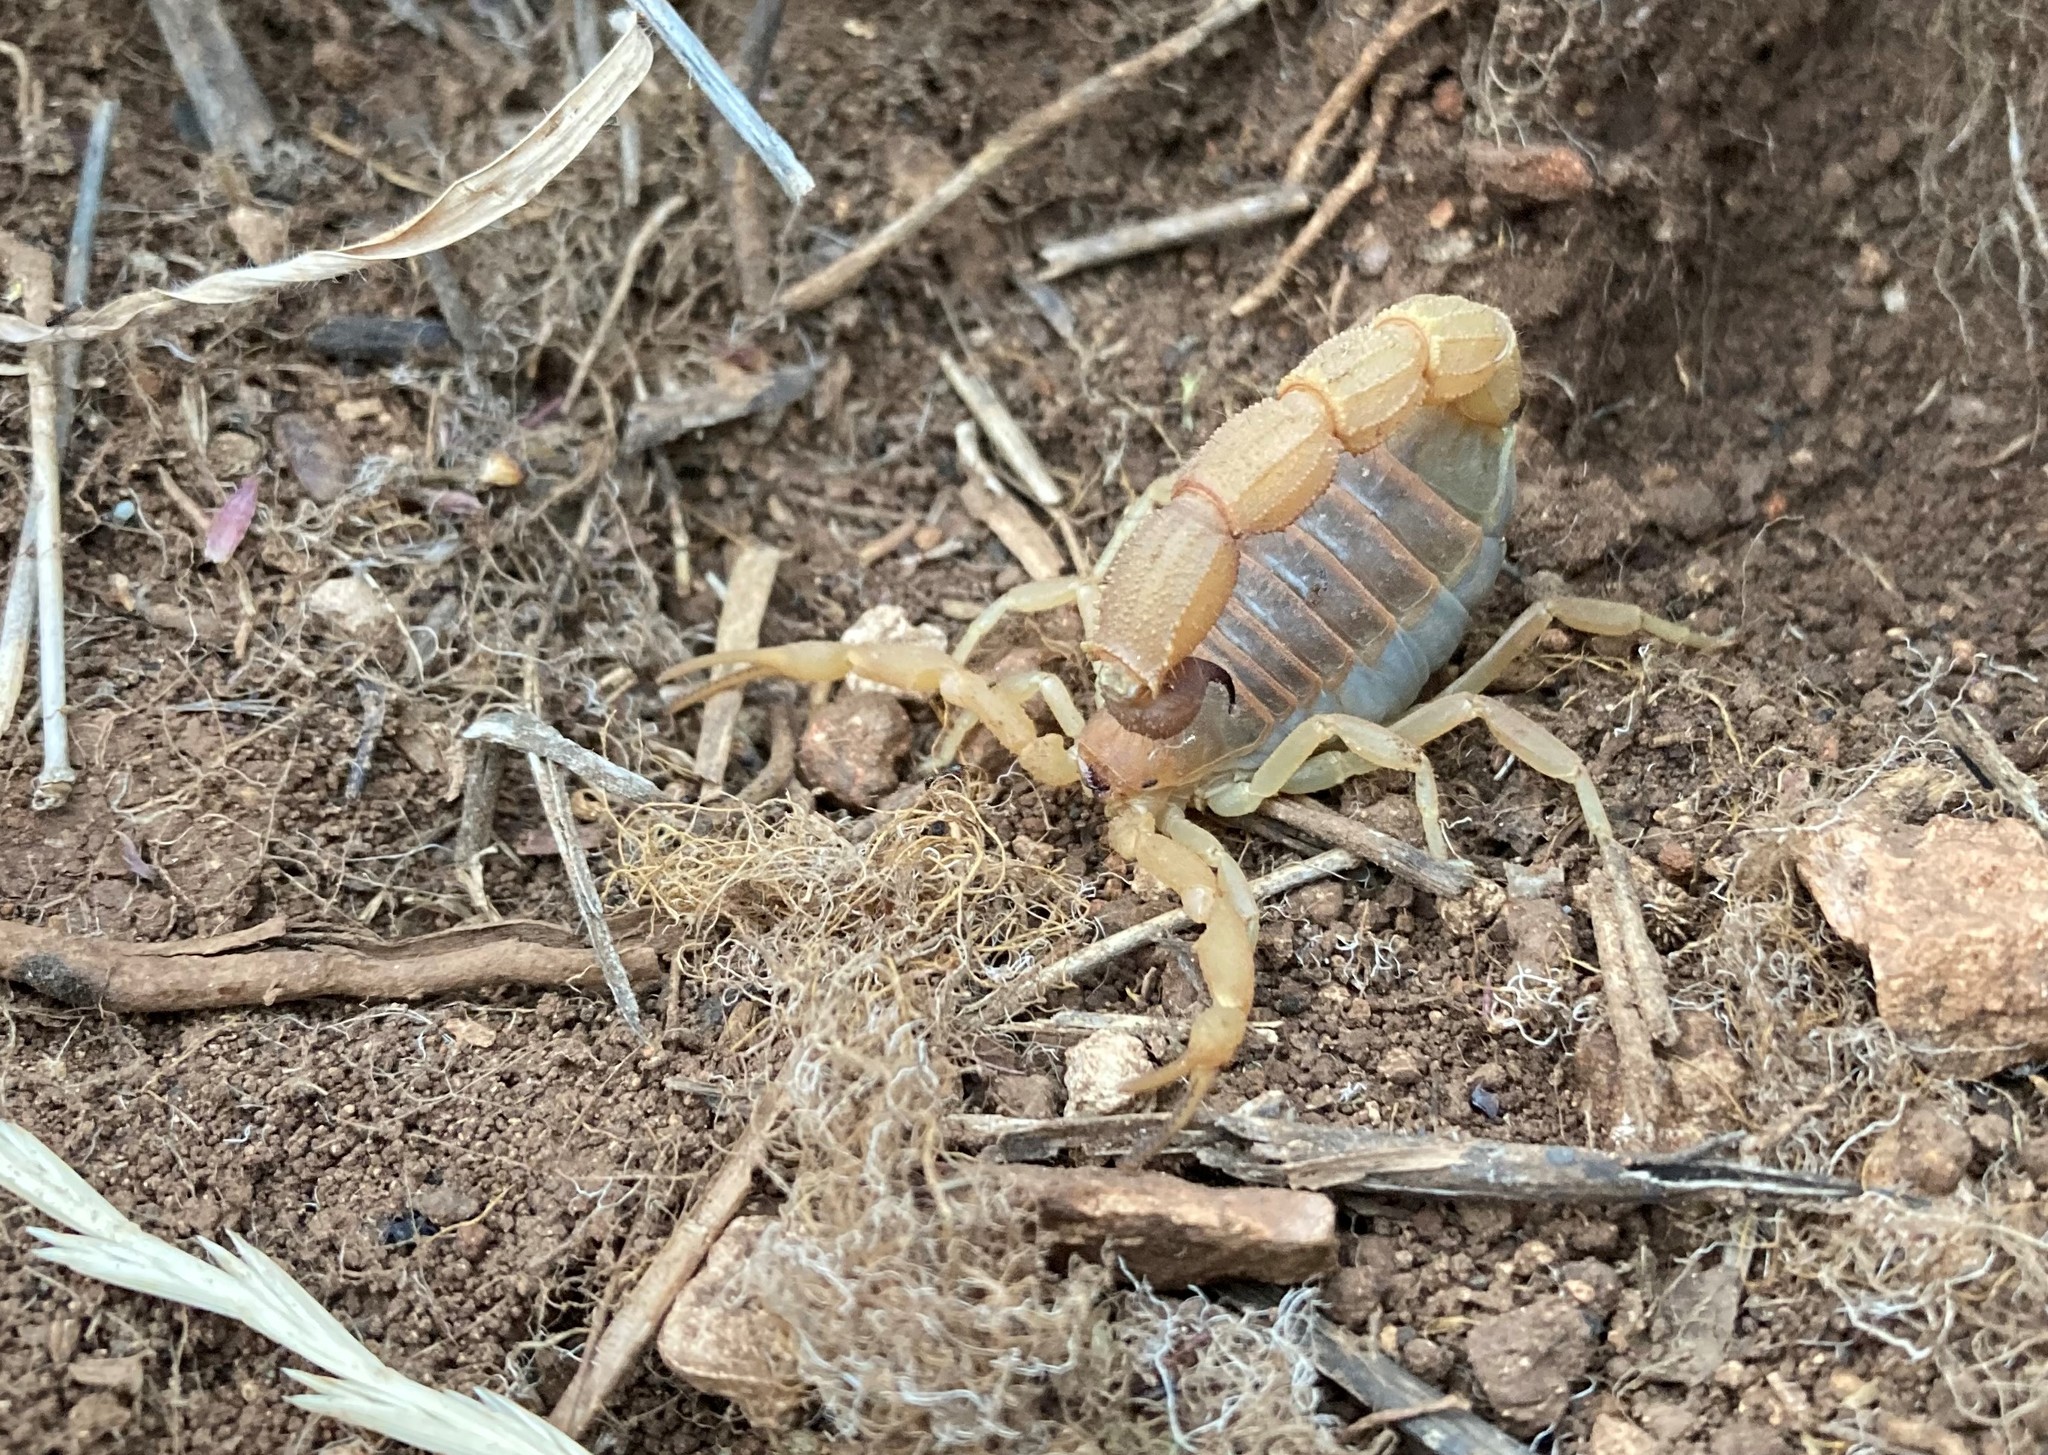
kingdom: Animalia
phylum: Arthropoda
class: Arachnida
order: Scorpiones
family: Buthidae
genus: Parabuthus
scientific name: Parabuthus planicauda
